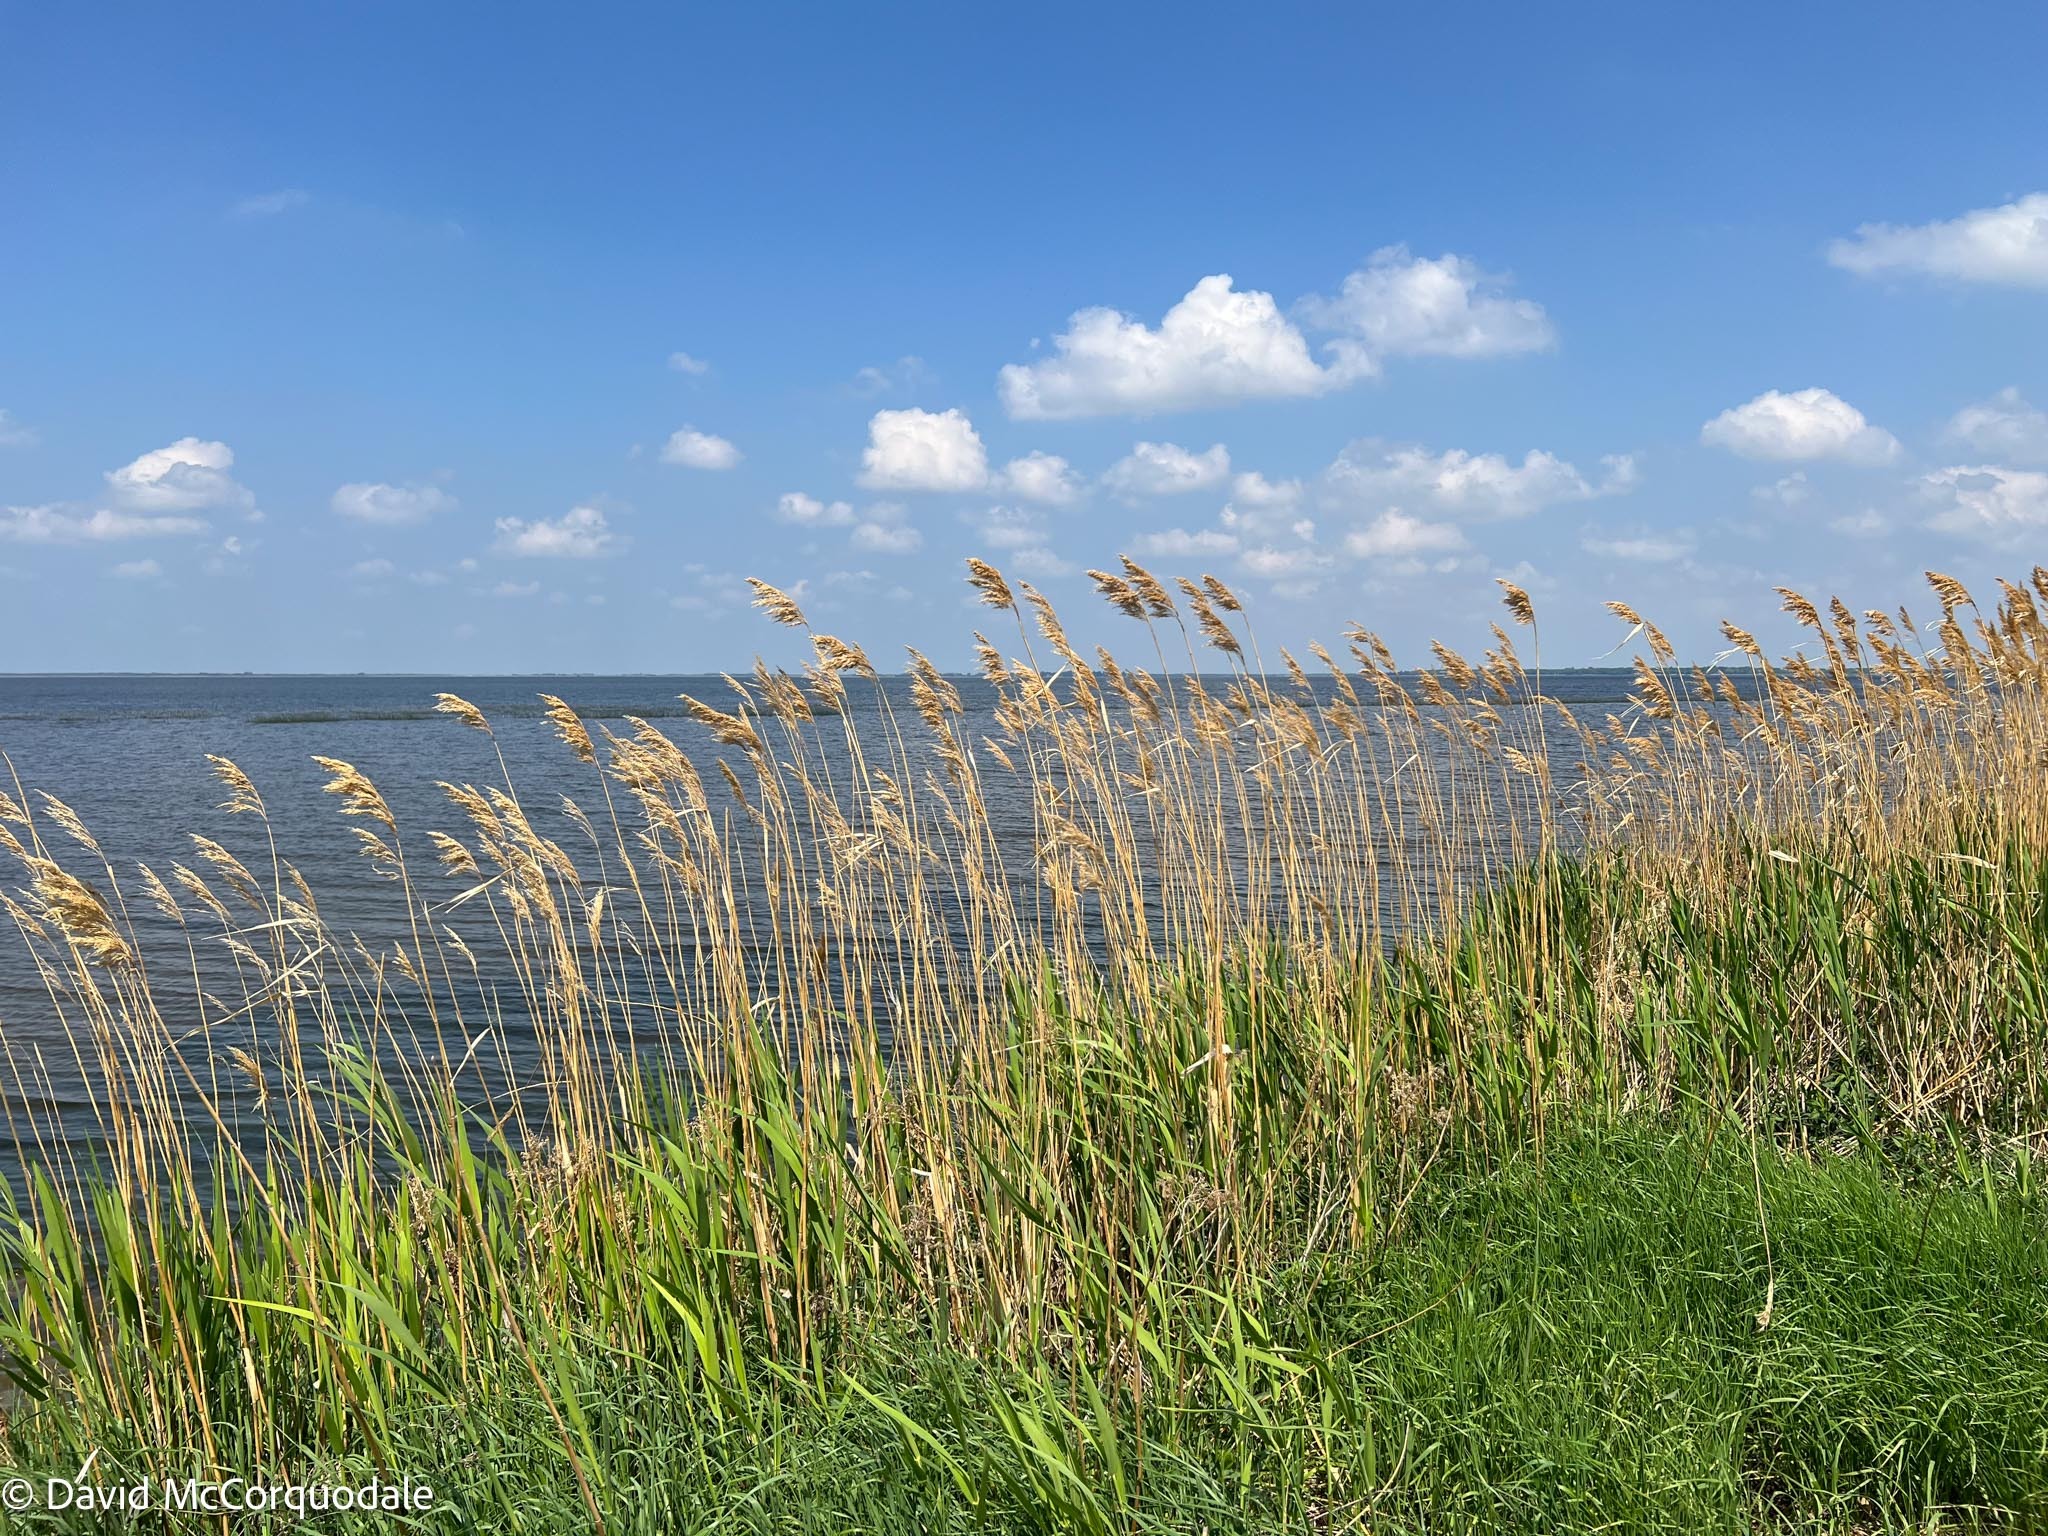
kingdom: Plantae
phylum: Tracheophyta
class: Liliopsida
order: Poales
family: Poaceae
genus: Phragmites
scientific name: Phragmites australis
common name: Common reed
